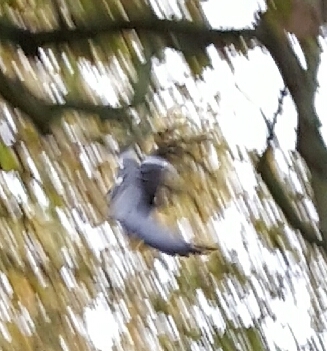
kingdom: Animalia
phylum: Chordata
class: Aves
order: Columbiformes
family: Columbidae
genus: Columba
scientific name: Columba palumbus
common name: Common wood pigeon
